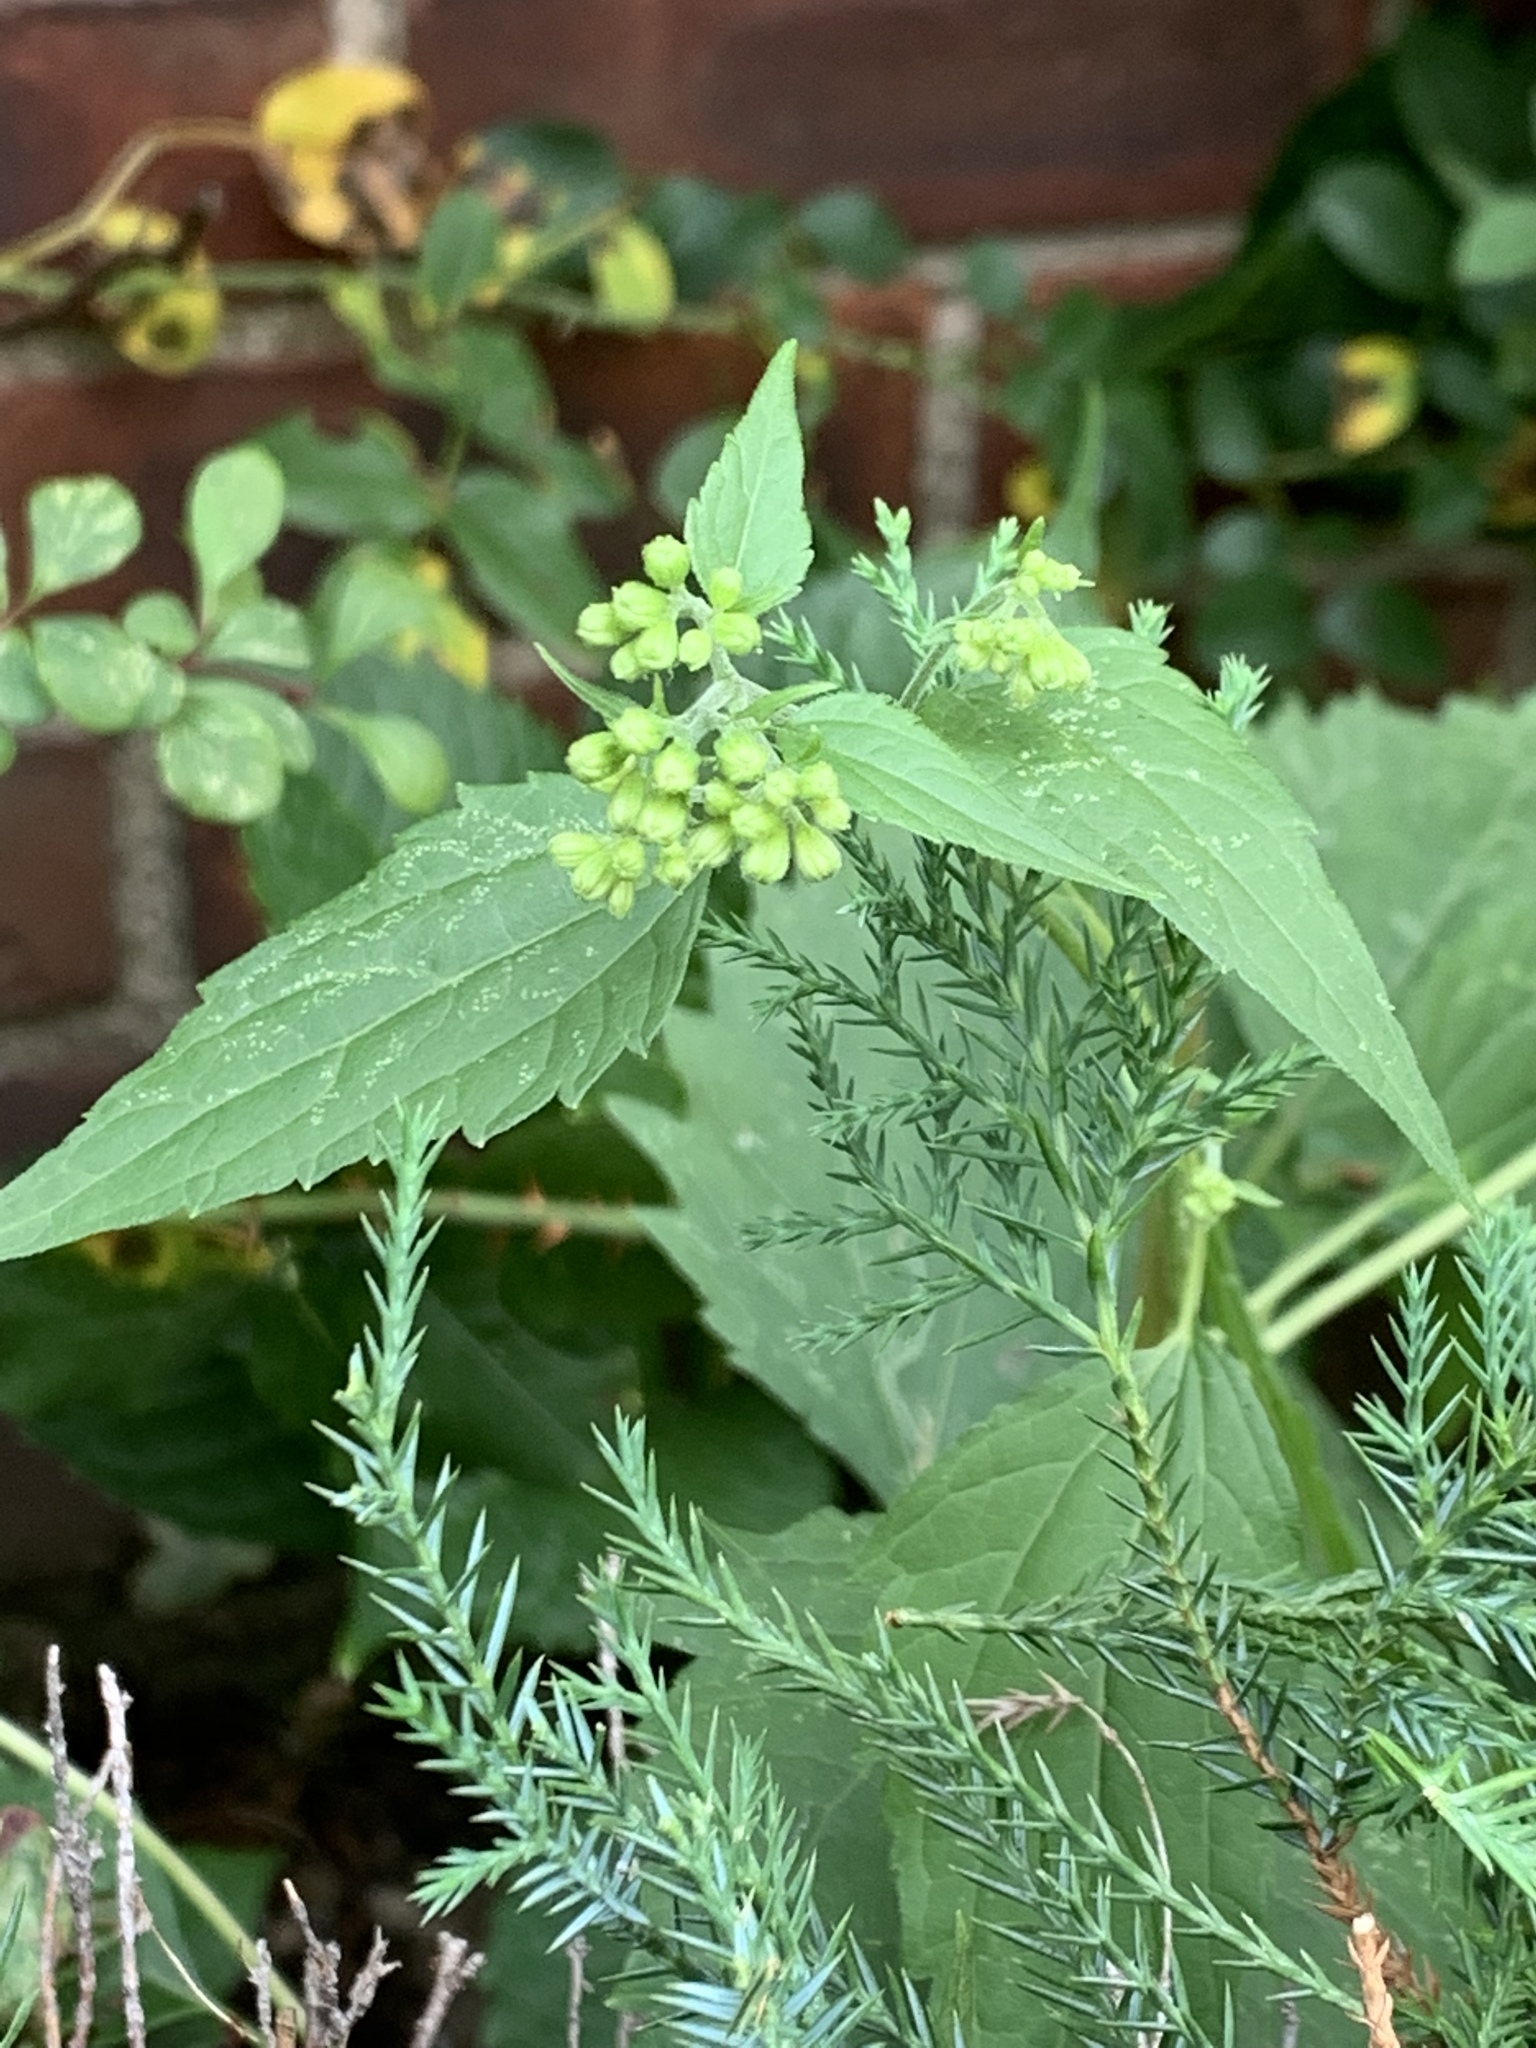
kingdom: Plantae
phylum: Tracheophyta
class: Magnoliopsida
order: Asterales
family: Asteraceae
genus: Ageratina
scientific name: Ageratina altissima
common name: White snakeroot
